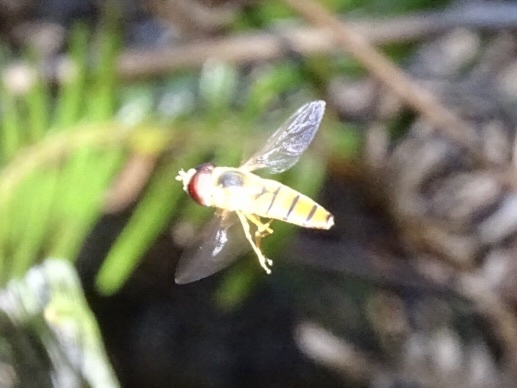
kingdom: Animalia
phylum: Arthropoda
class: Insecta
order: Diptera
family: Syrphidae
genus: Asarkina
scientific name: Asarkina porcina
